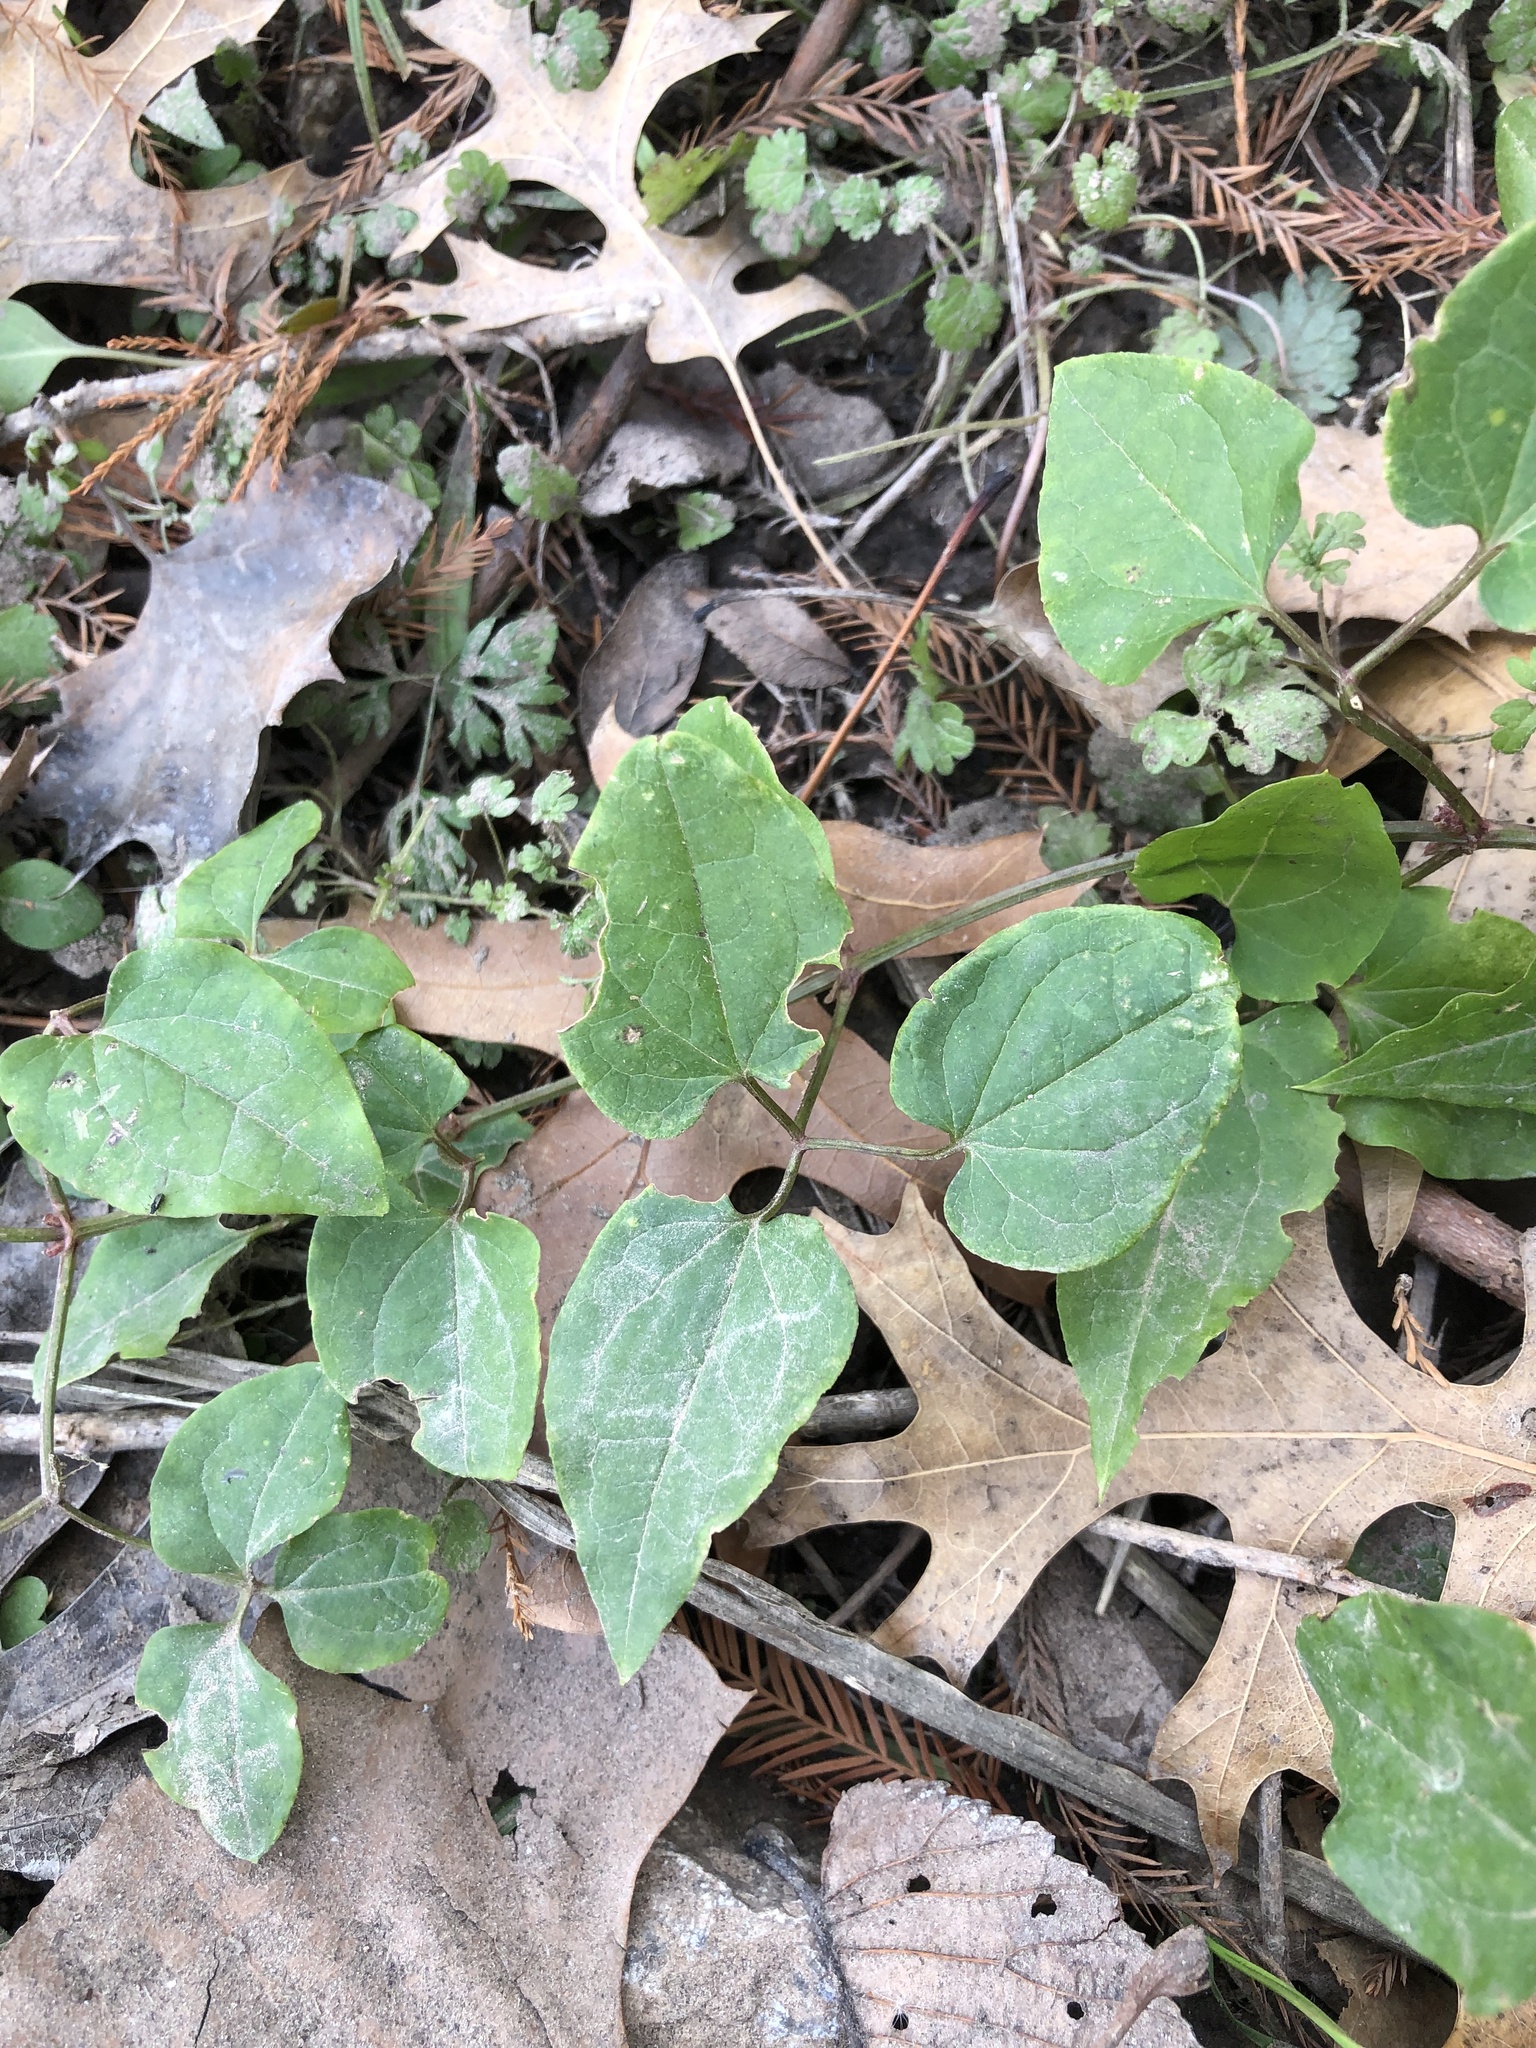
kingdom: Plantae
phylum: Tracheophyta
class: Magnoliopsida
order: Ranunculales
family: Ranunculaceae
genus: Clematis
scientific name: Clematis terniflora
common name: Sweet autumn clematis
